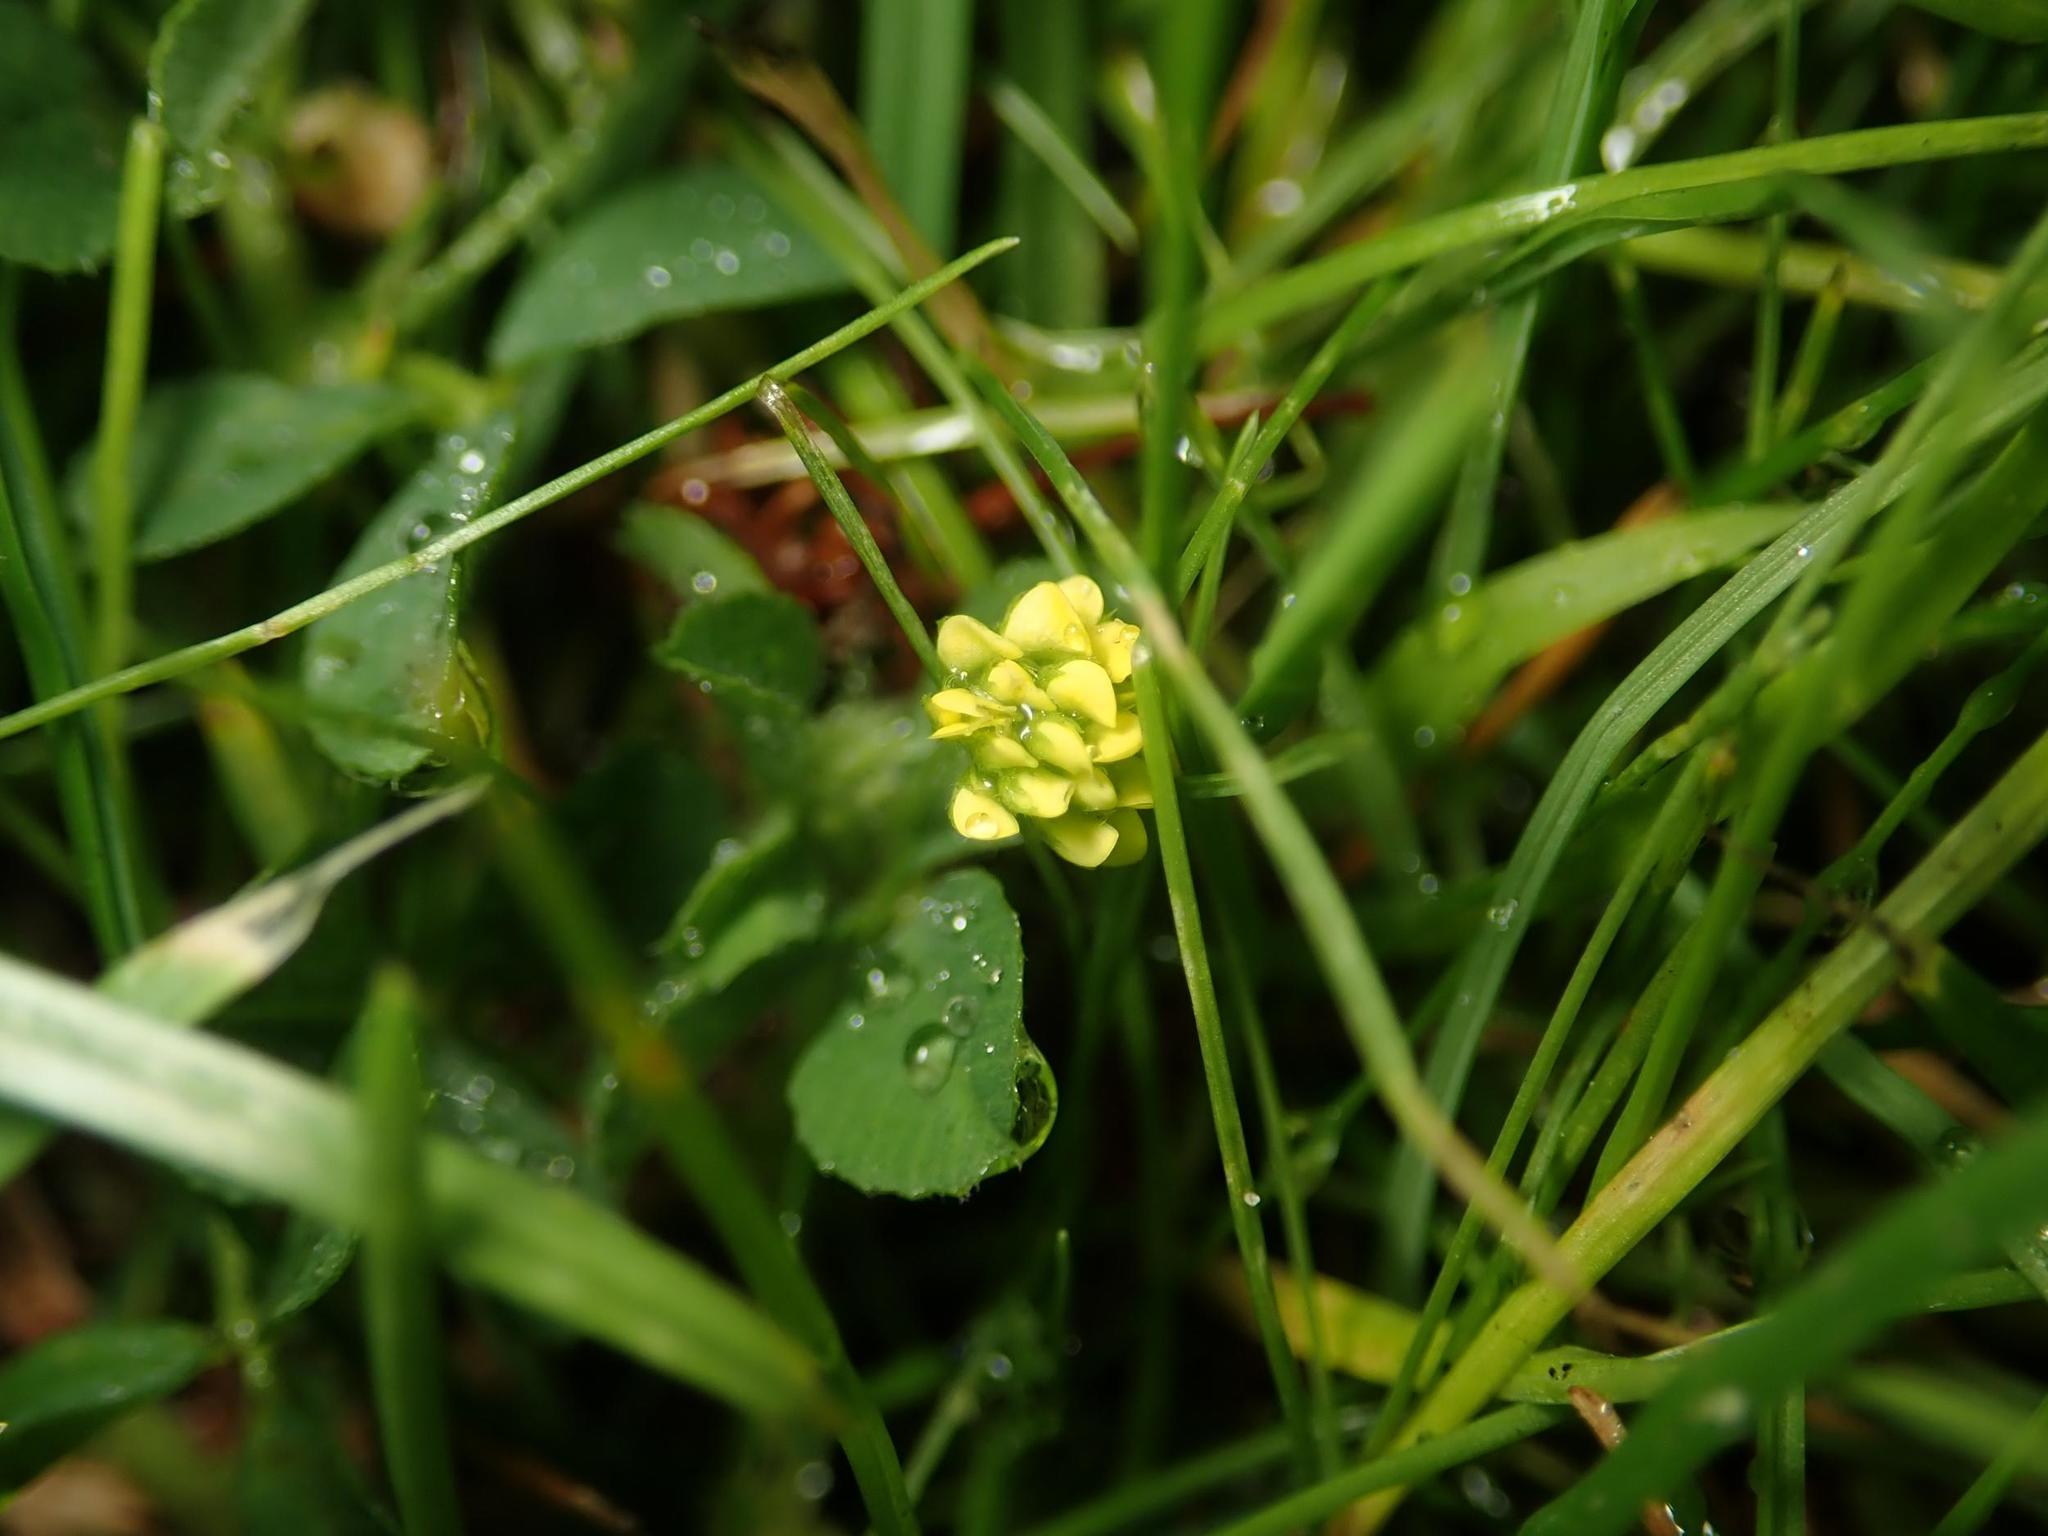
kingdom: Plantae
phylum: Tracheophyta
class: Magnoliopsida
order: Fabales
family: Fabaceae
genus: Medicago
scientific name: Medicago lupulina
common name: Black medick
